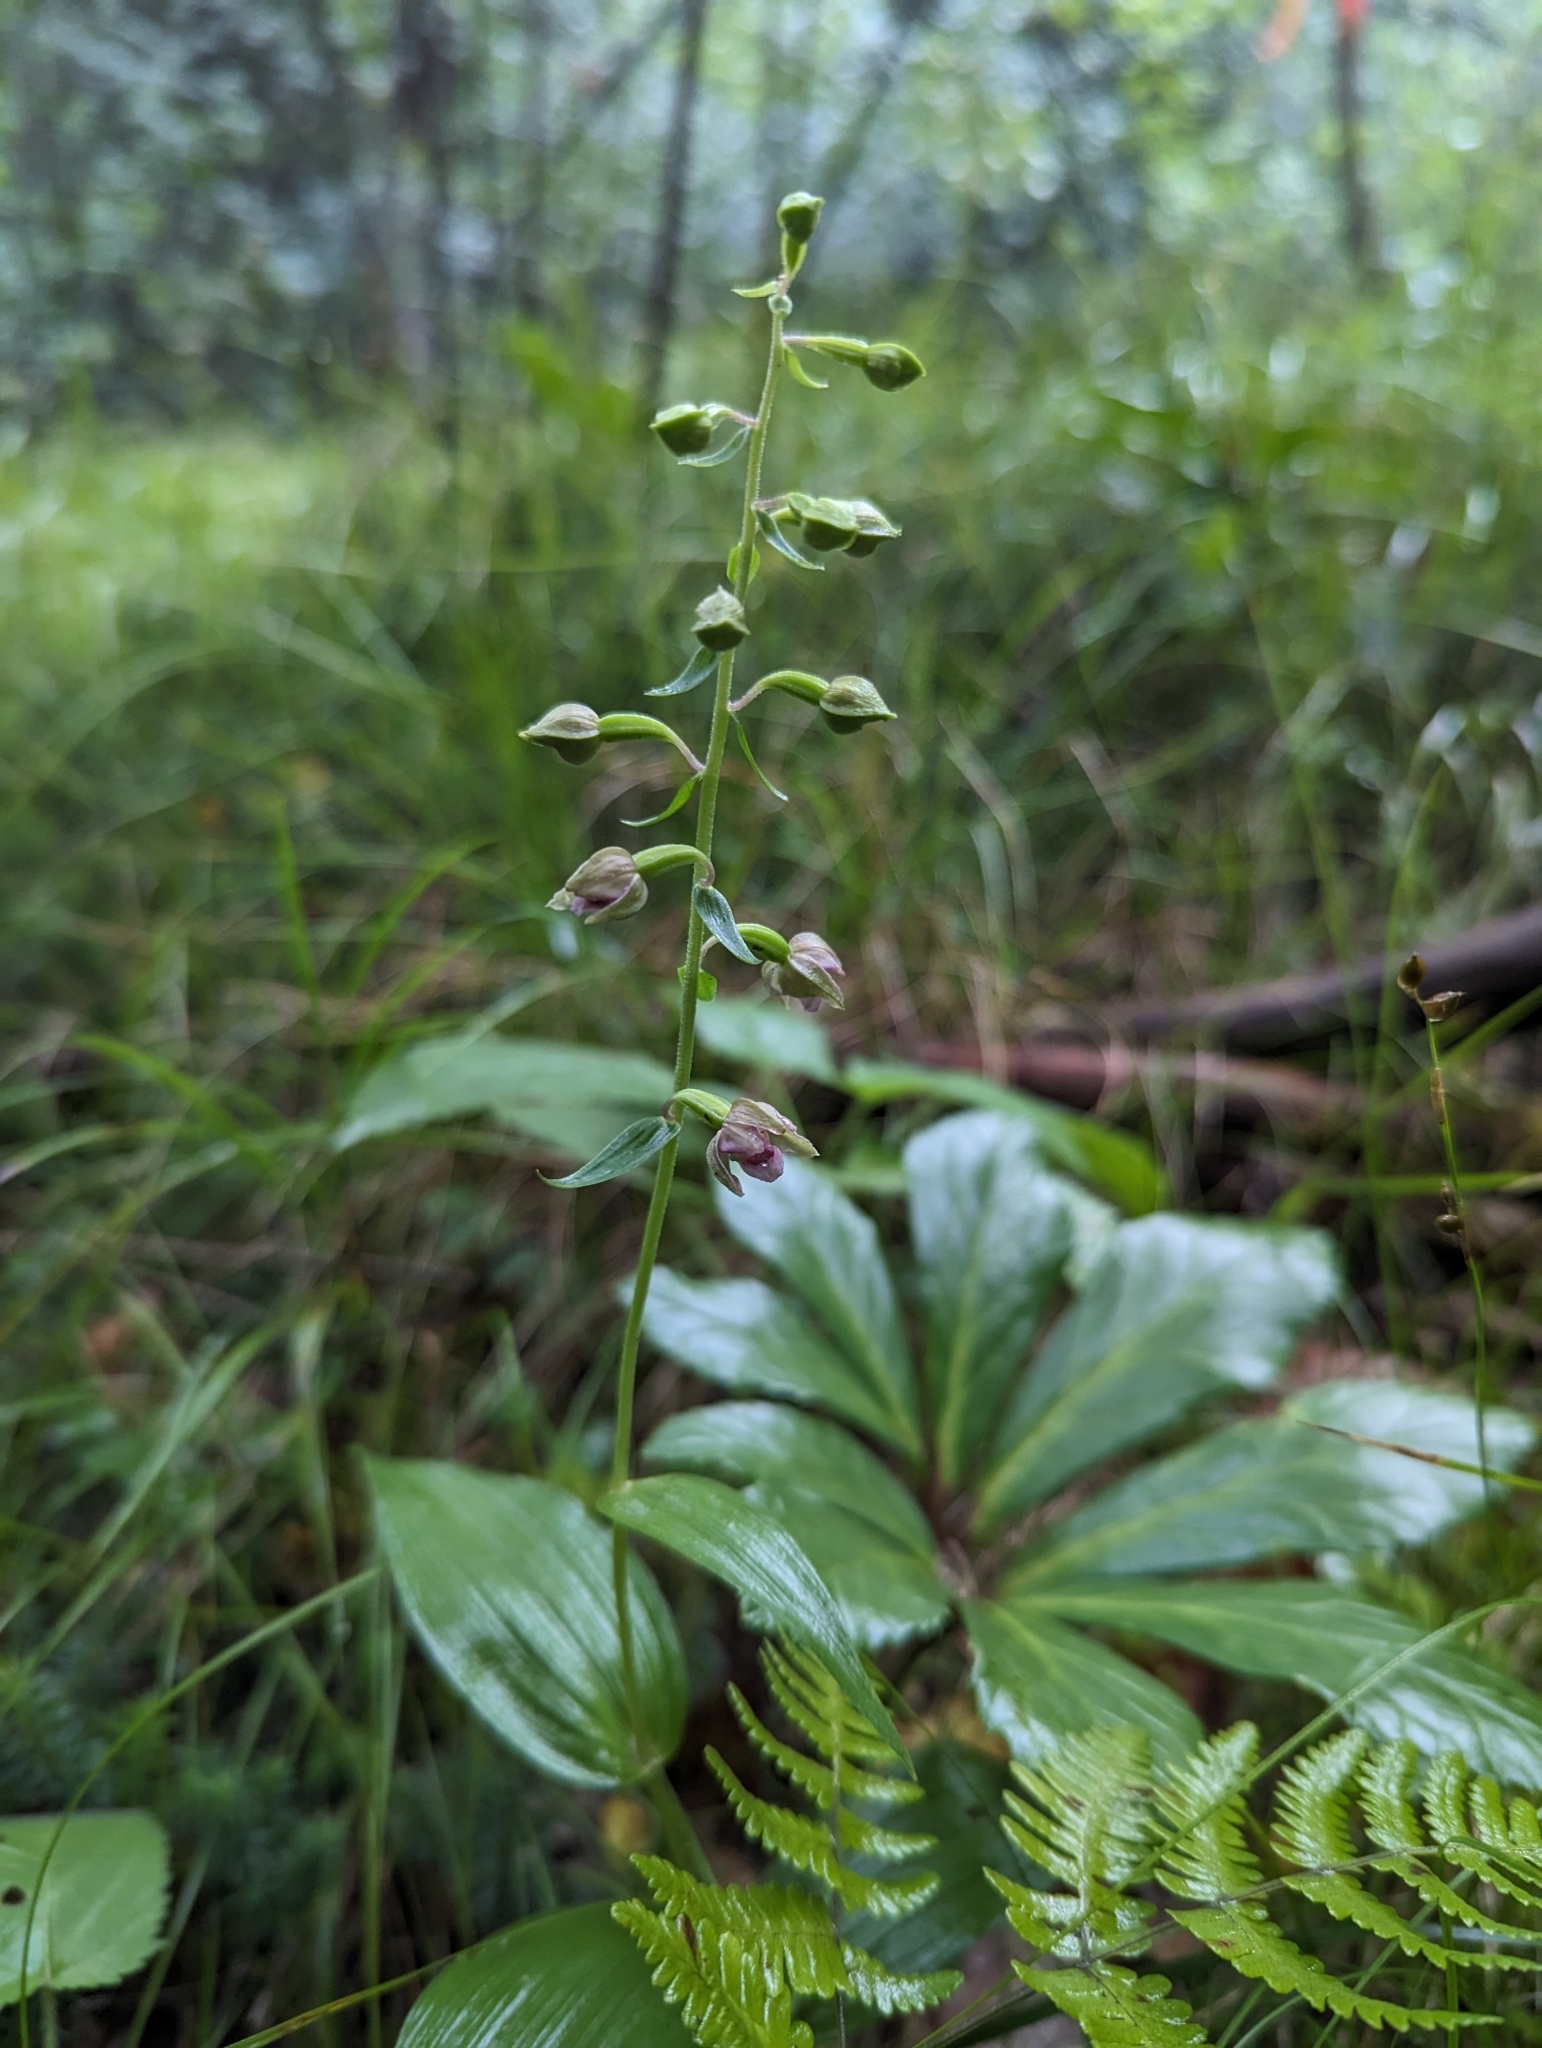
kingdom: Plantae
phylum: Tracheophyta
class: Liliopsida
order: Asparagales
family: Orchidaceae
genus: Epipactis
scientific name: Epipactis helleborine
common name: Broad-leaved helleborine
